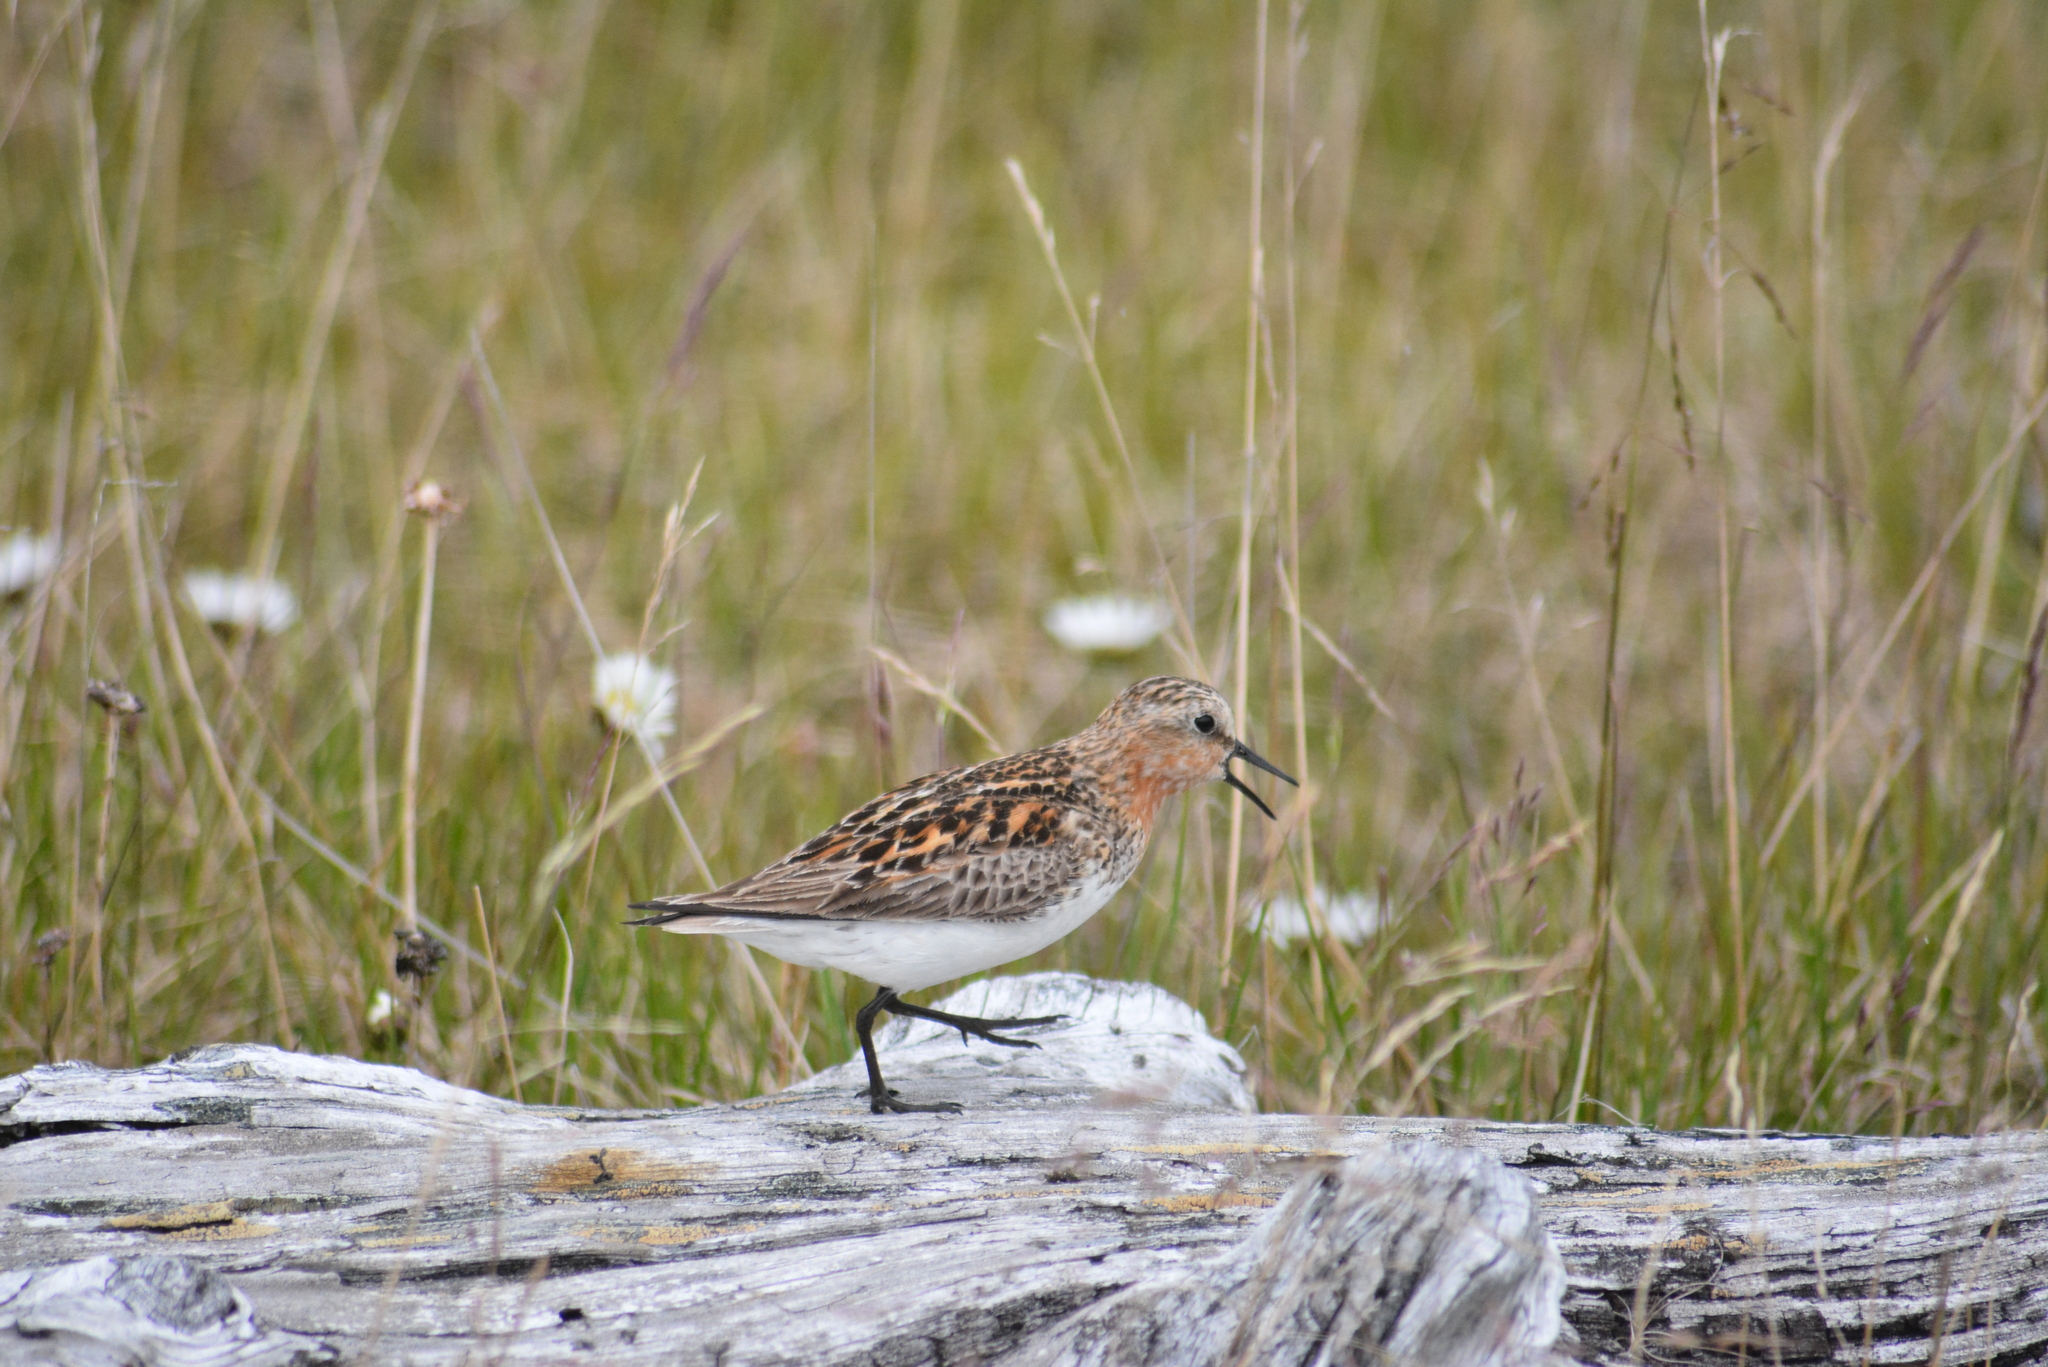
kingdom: Animalia
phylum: Chordata
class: Aves
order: Charadriiformes
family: Scolopacidae
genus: Calidris
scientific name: Calidris ruficollis
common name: Red-necked stint
